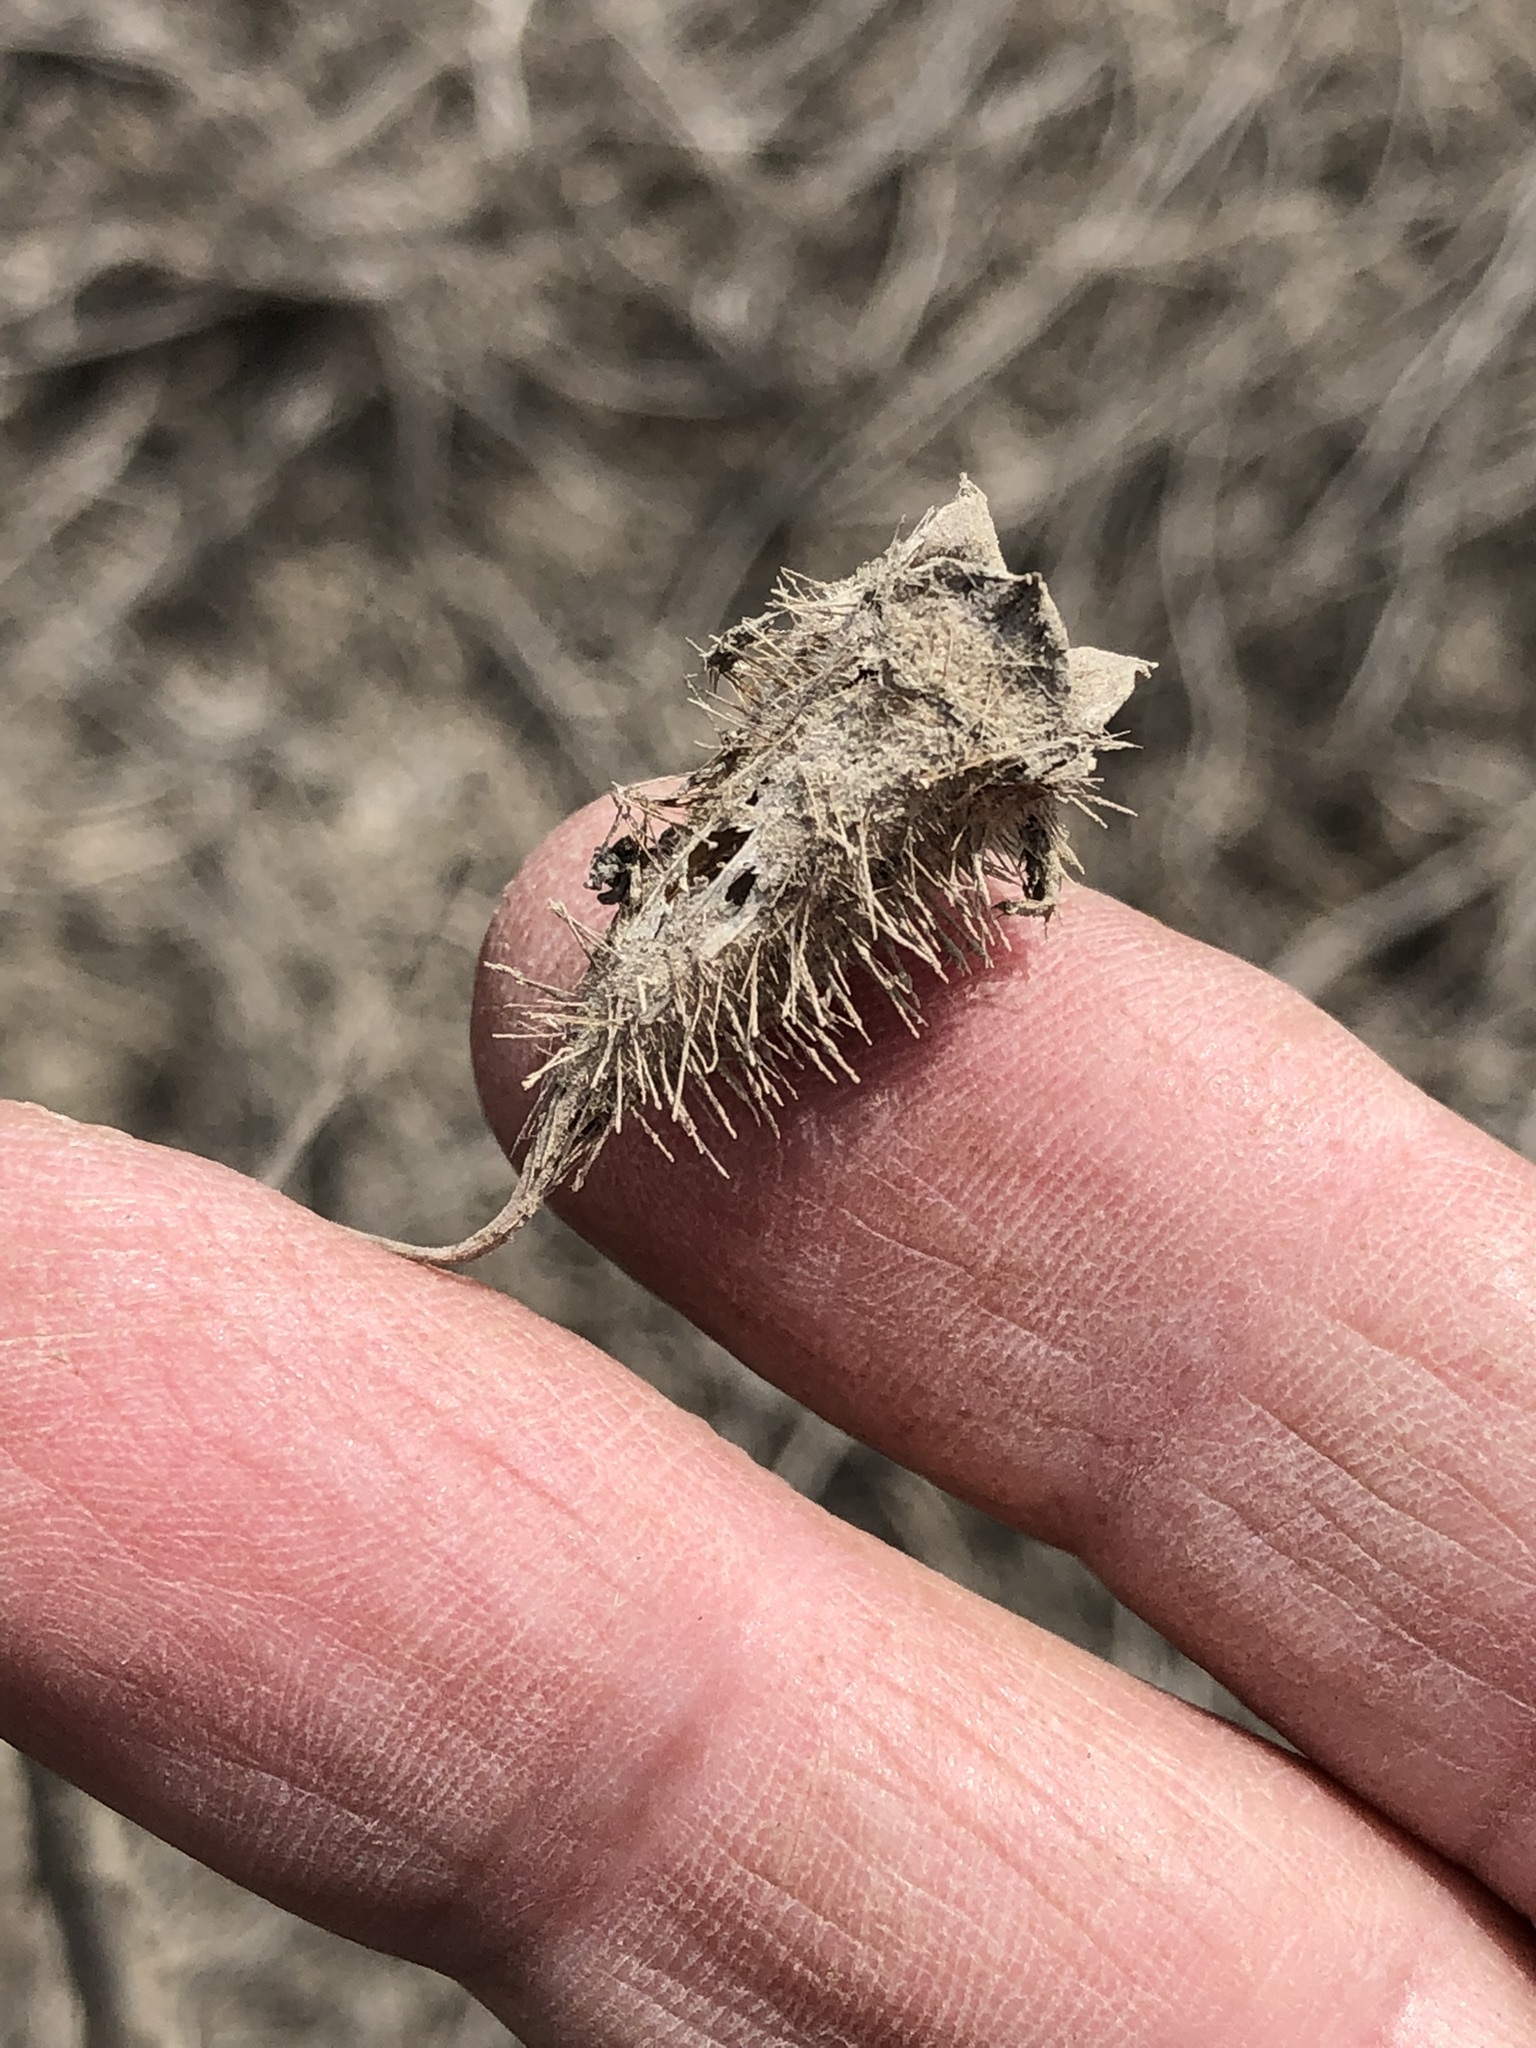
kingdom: Plantae
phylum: Tracheophyta
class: Magnoliopsida
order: Cornales
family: Loasaceae
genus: Nasa
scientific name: Nasa urens
